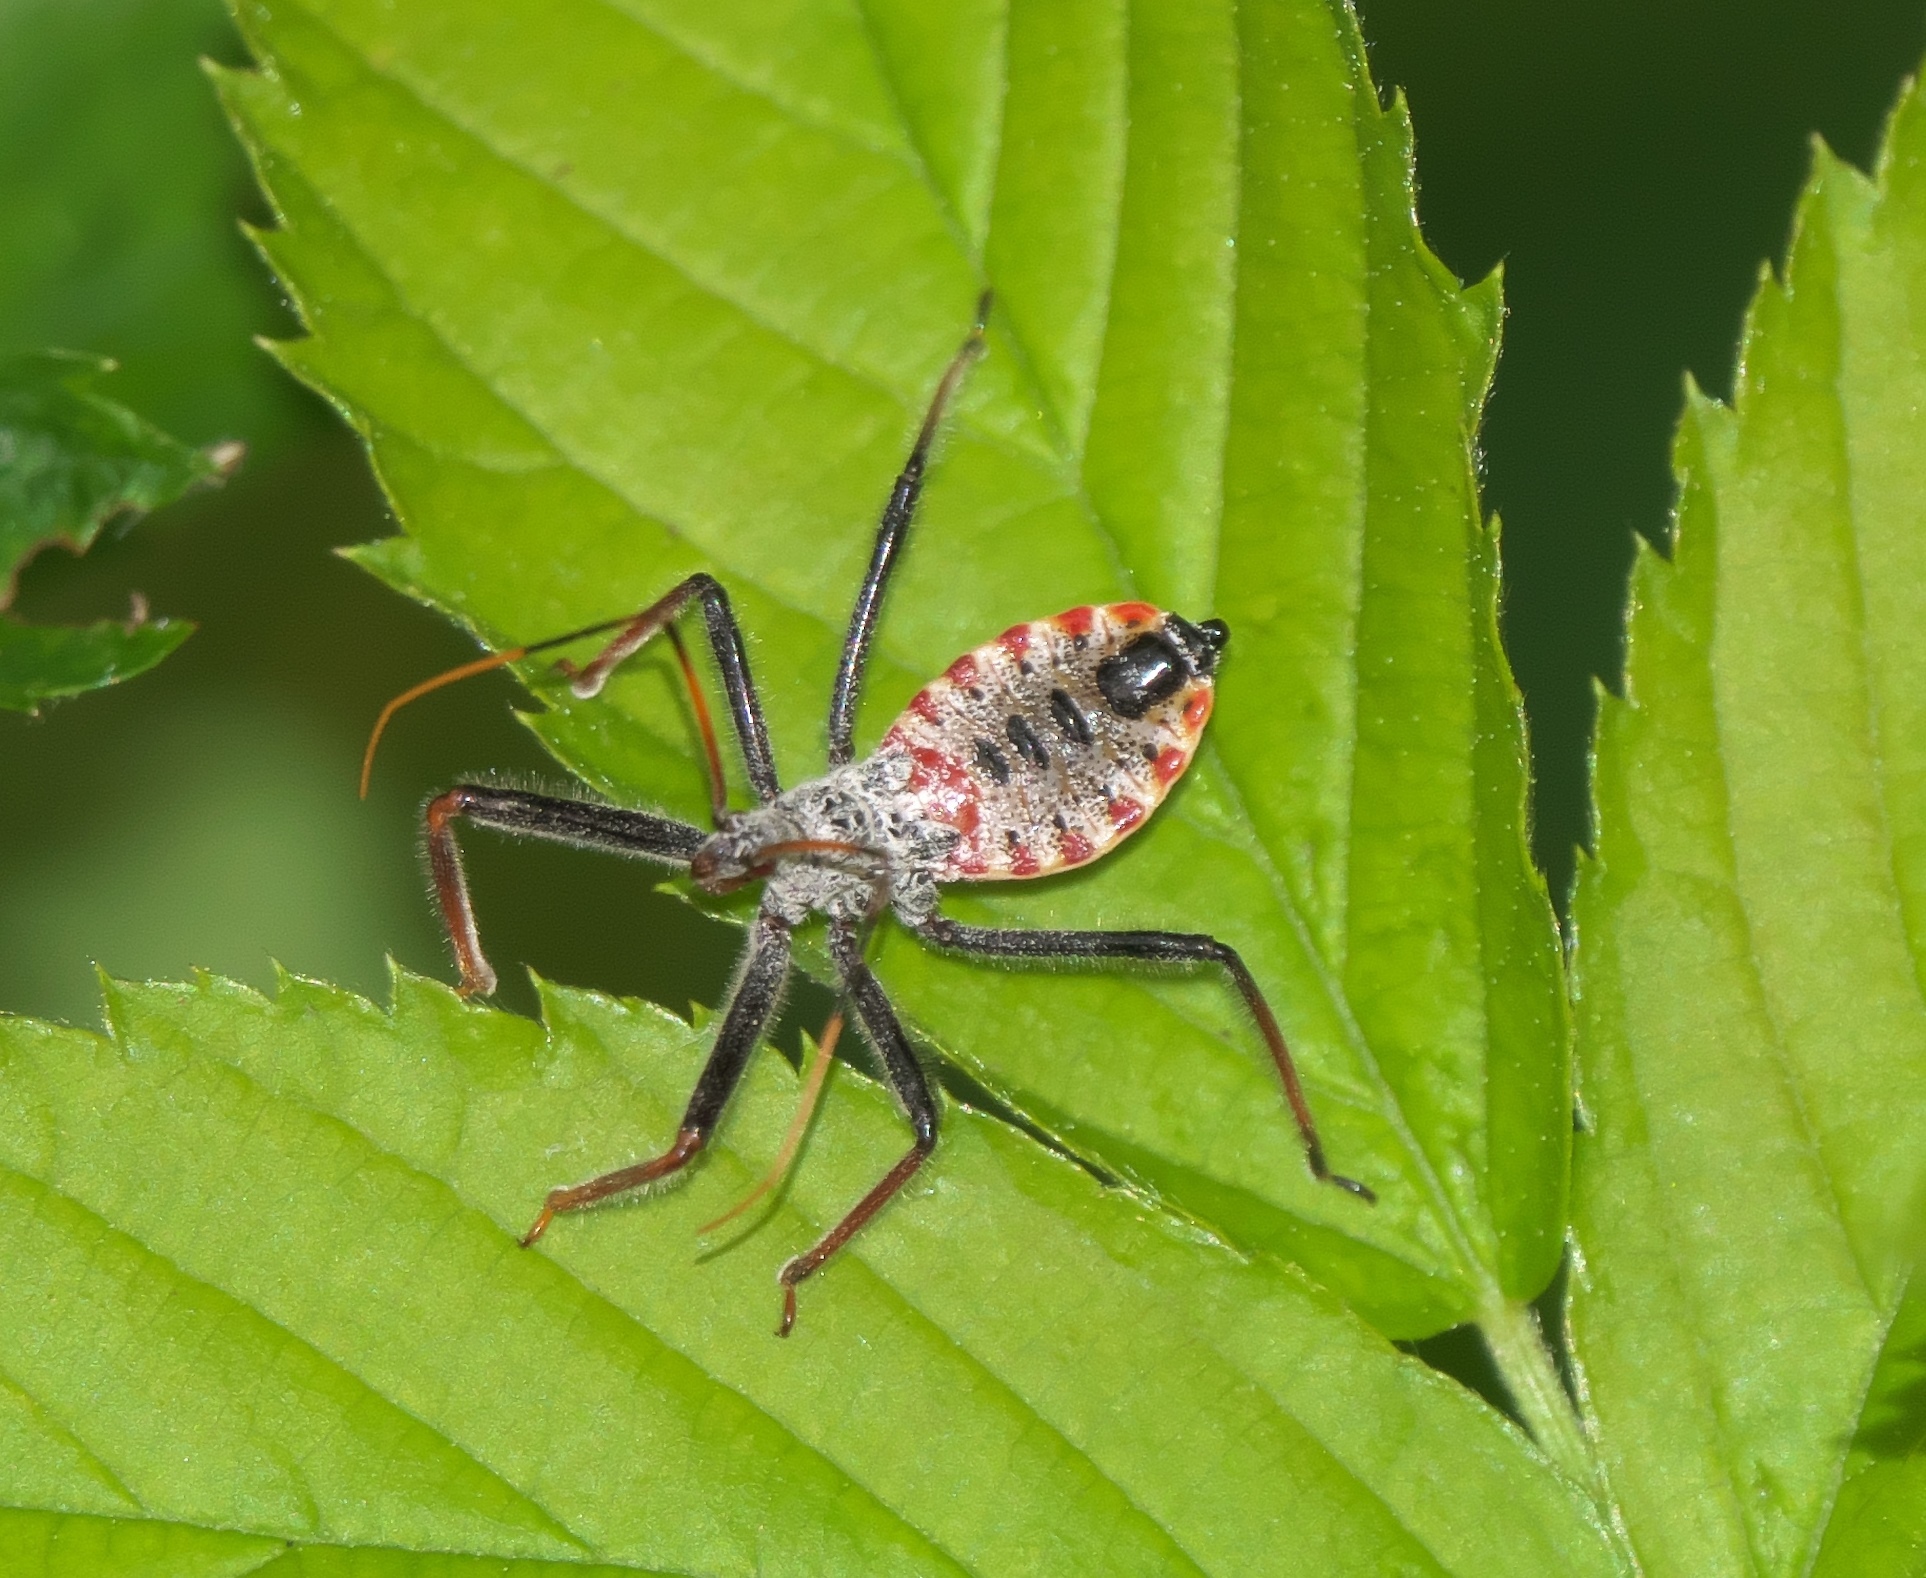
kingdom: Animalia
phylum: Arthropoda
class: Insecta
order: Hemiptera
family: Reduviidae
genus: Arilus
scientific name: Arilus cristatus
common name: North american wheel bug
